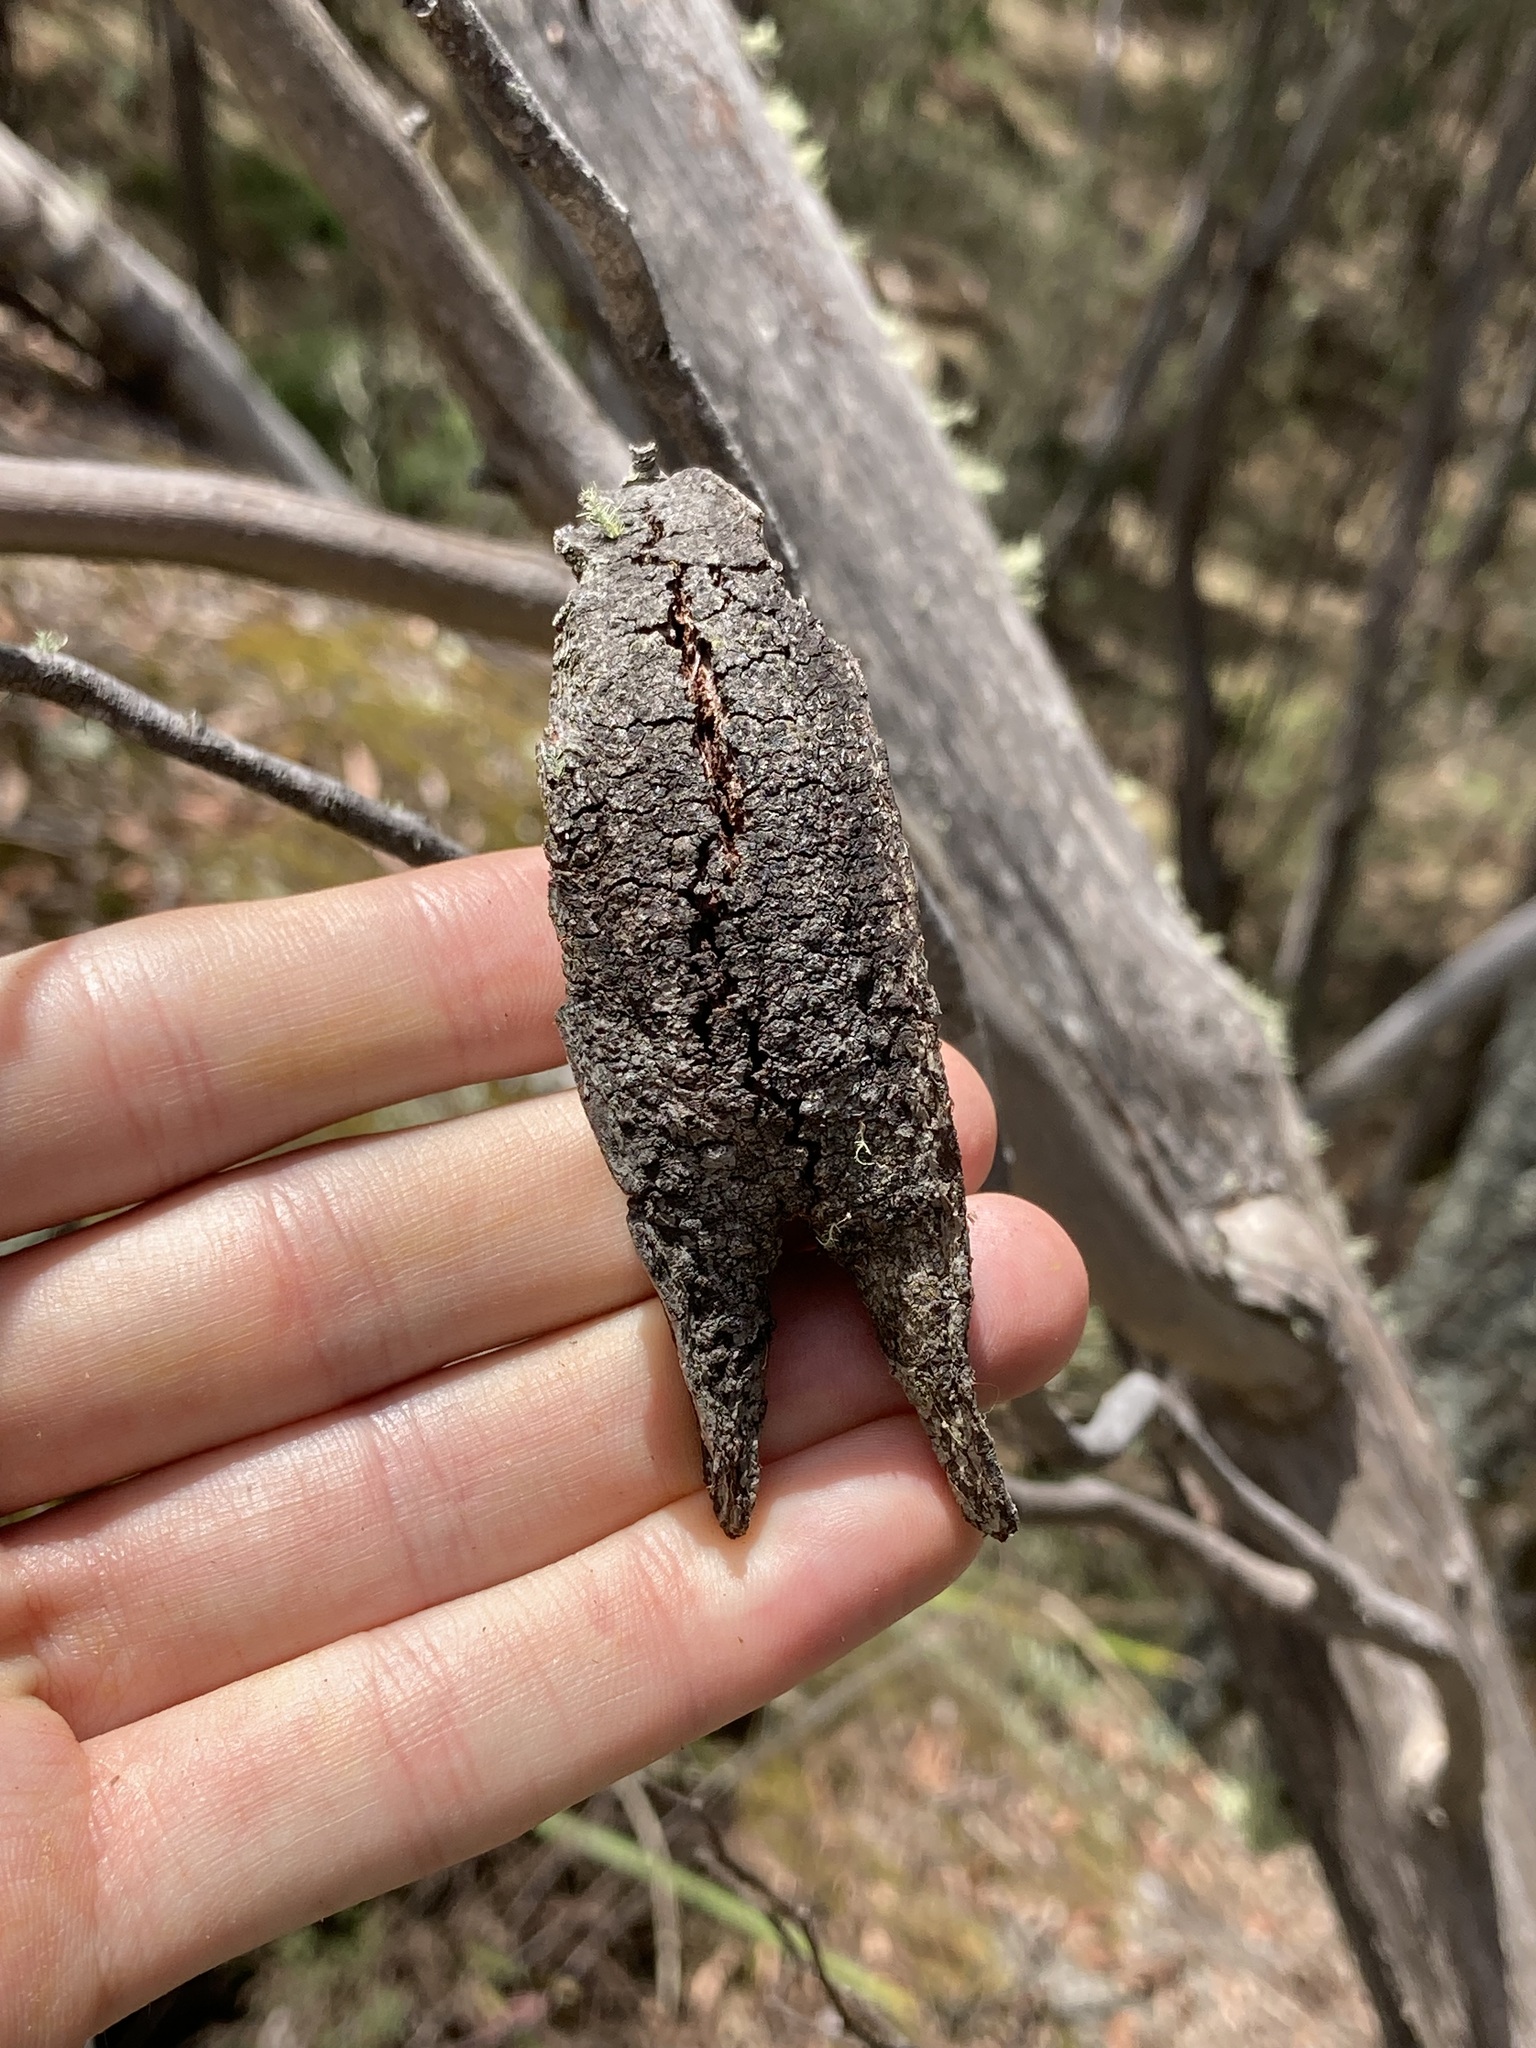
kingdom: Animalia
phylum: Arthropoda
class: Insecta
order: Hemiptera
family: Eriococcidae
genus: Apiomorpha
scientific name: Apiomorpha duplex
